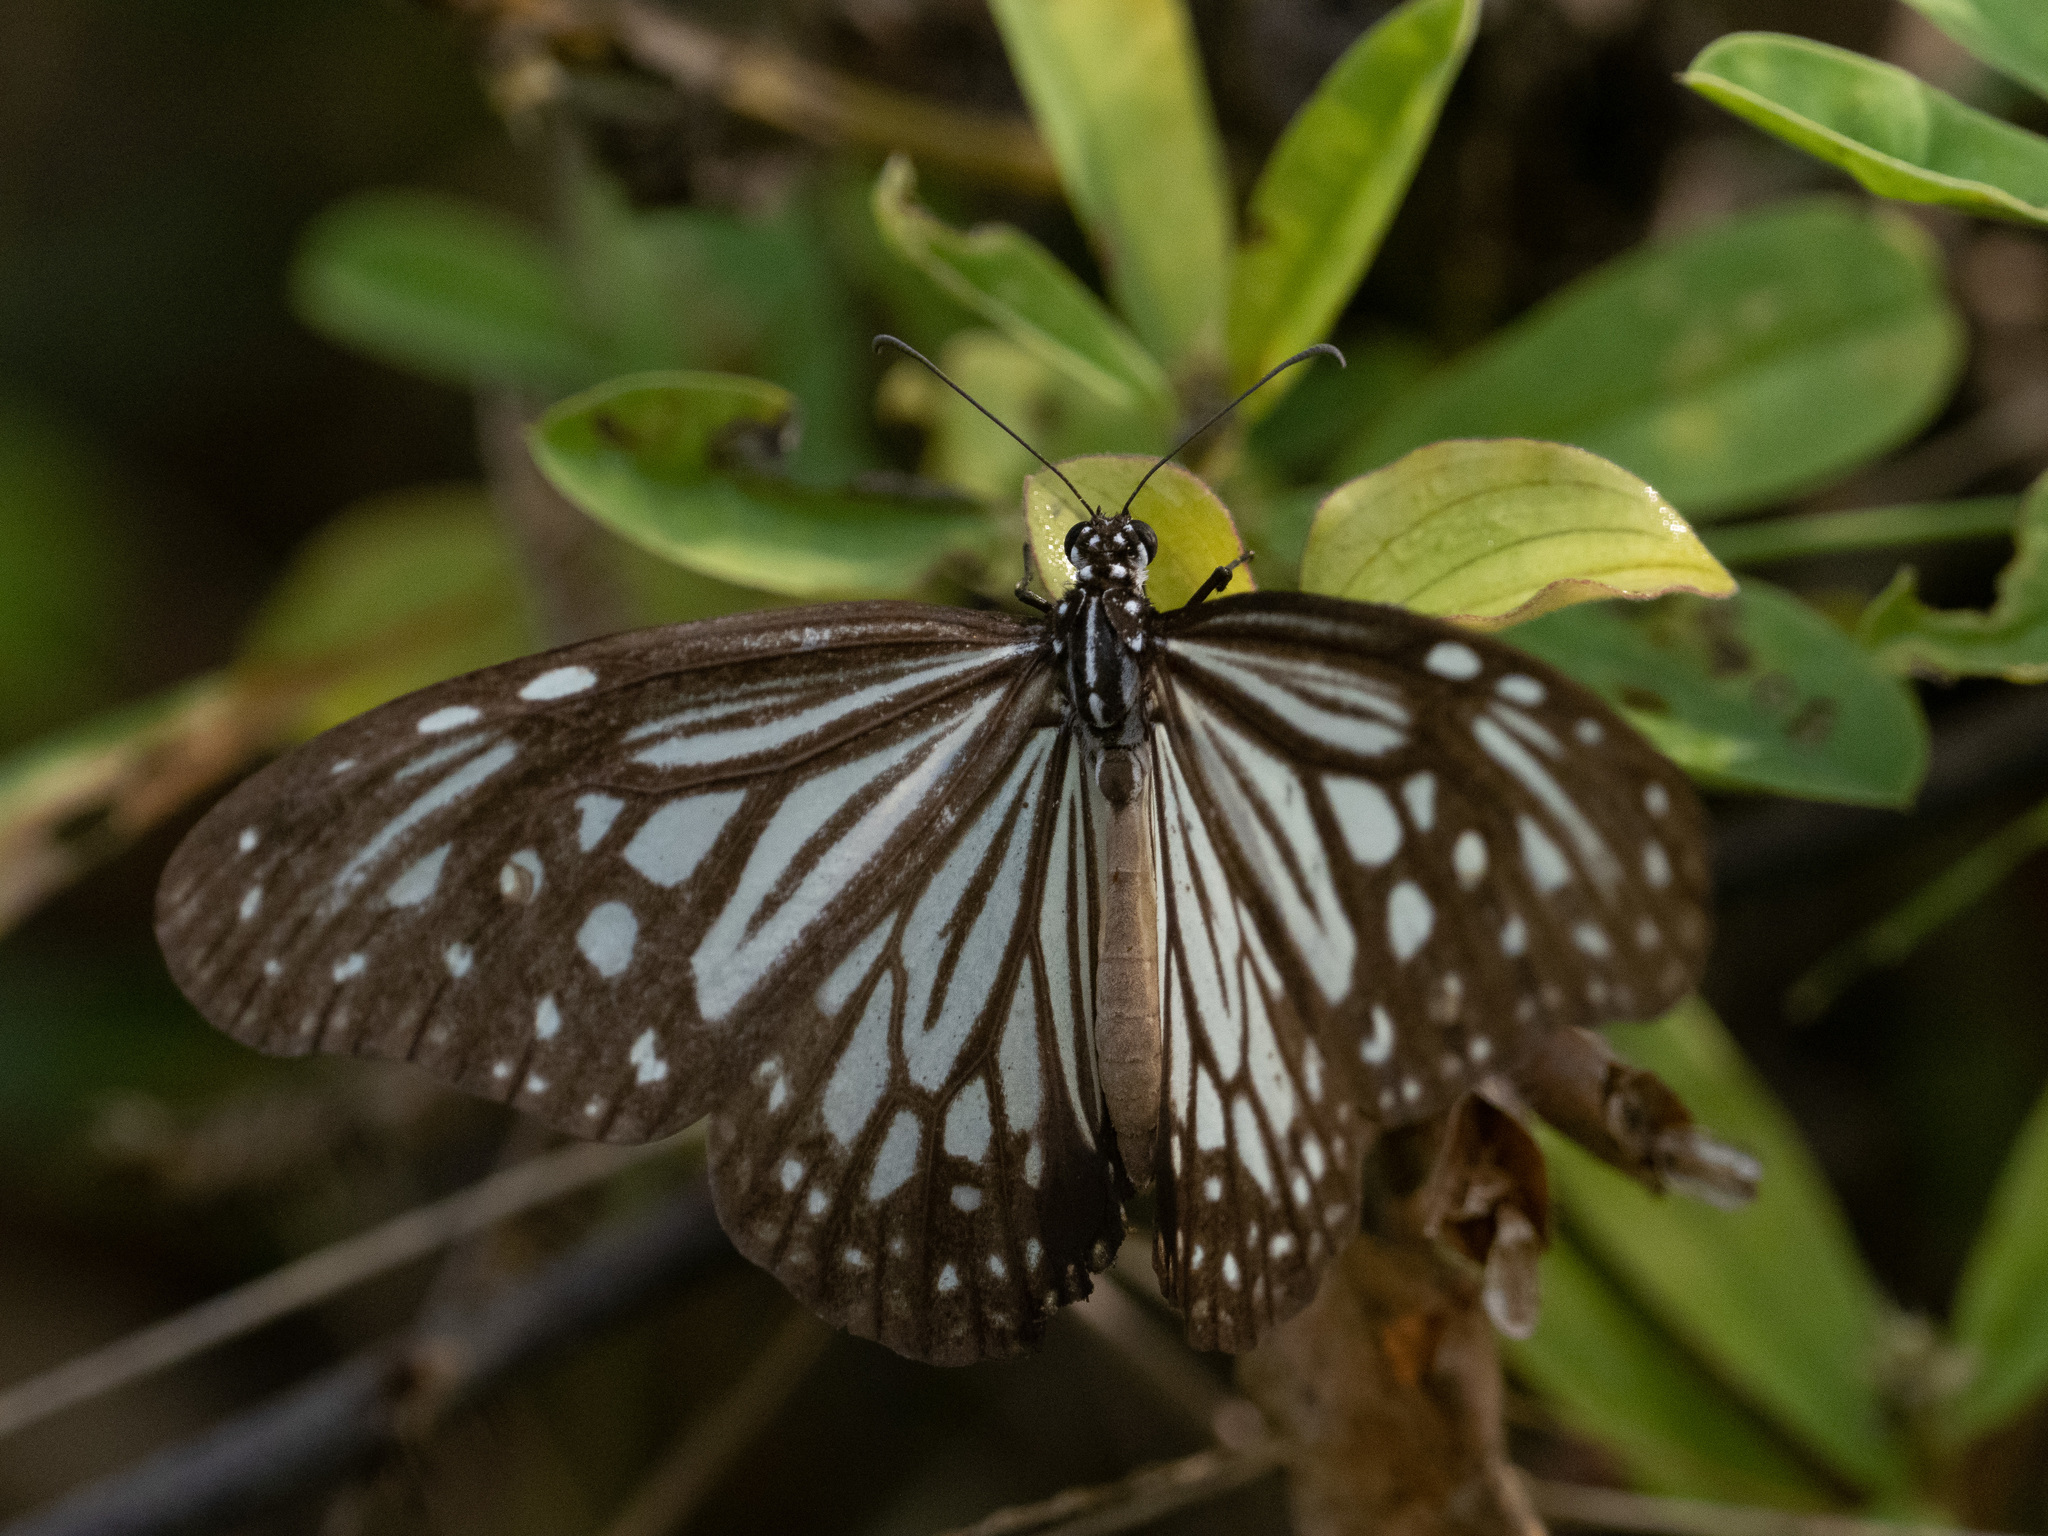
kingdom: Animalia
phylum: Arthropoda
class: Insecta
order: Lepidoptera
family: Nymphalidae
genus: Parantica
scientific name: Parantica aglea
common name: Glassy tiger
